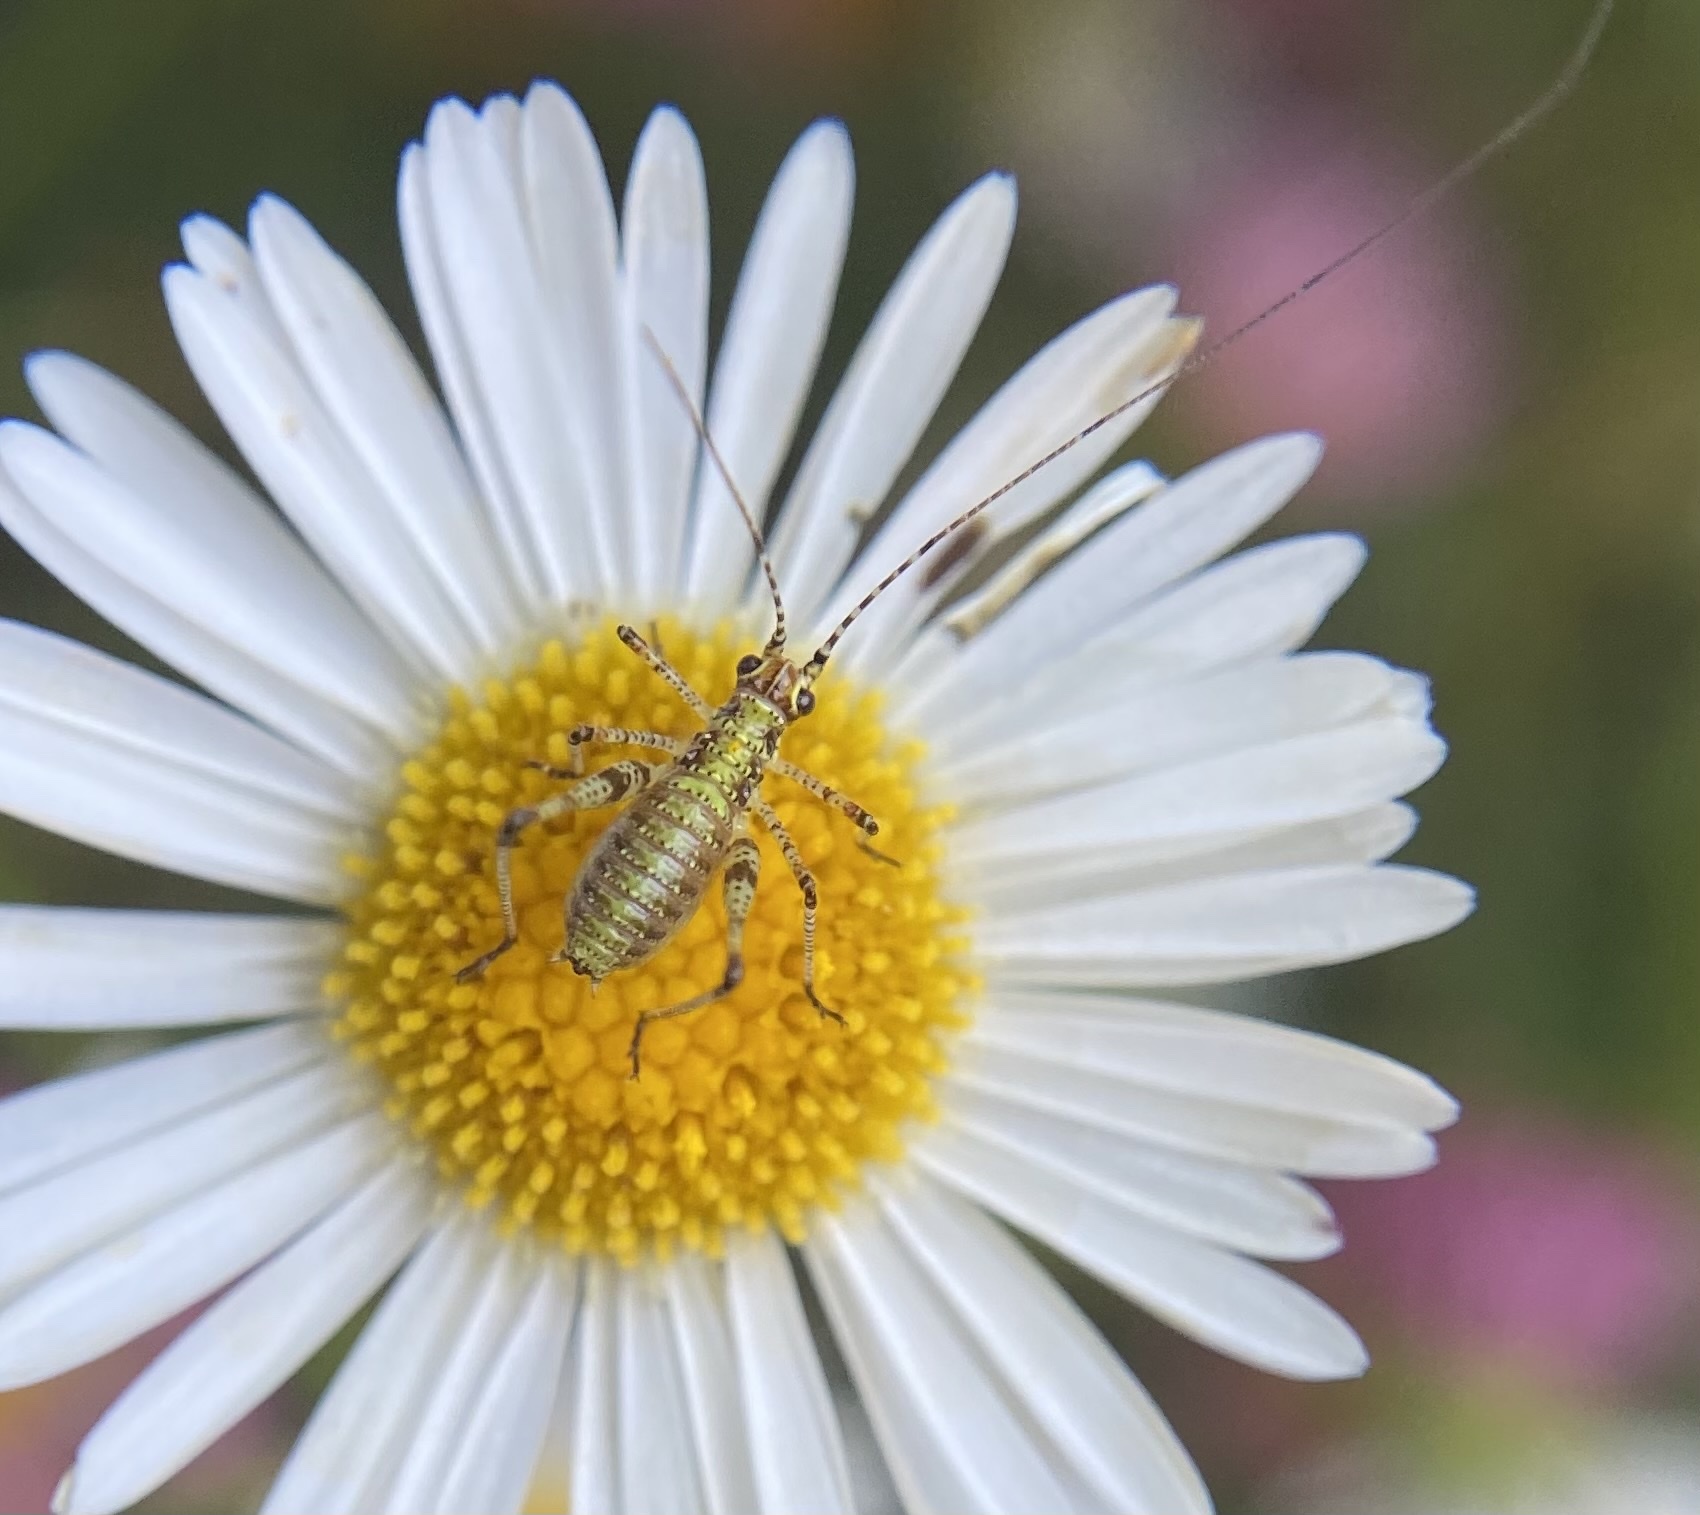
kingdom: Animalia
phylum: Arthropoda
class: Insecta
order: Orthoptera
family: Tettigoniidae
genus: Phaneroptera
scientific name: Phaneroptera nana
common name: Southern sickle bush-cricket
